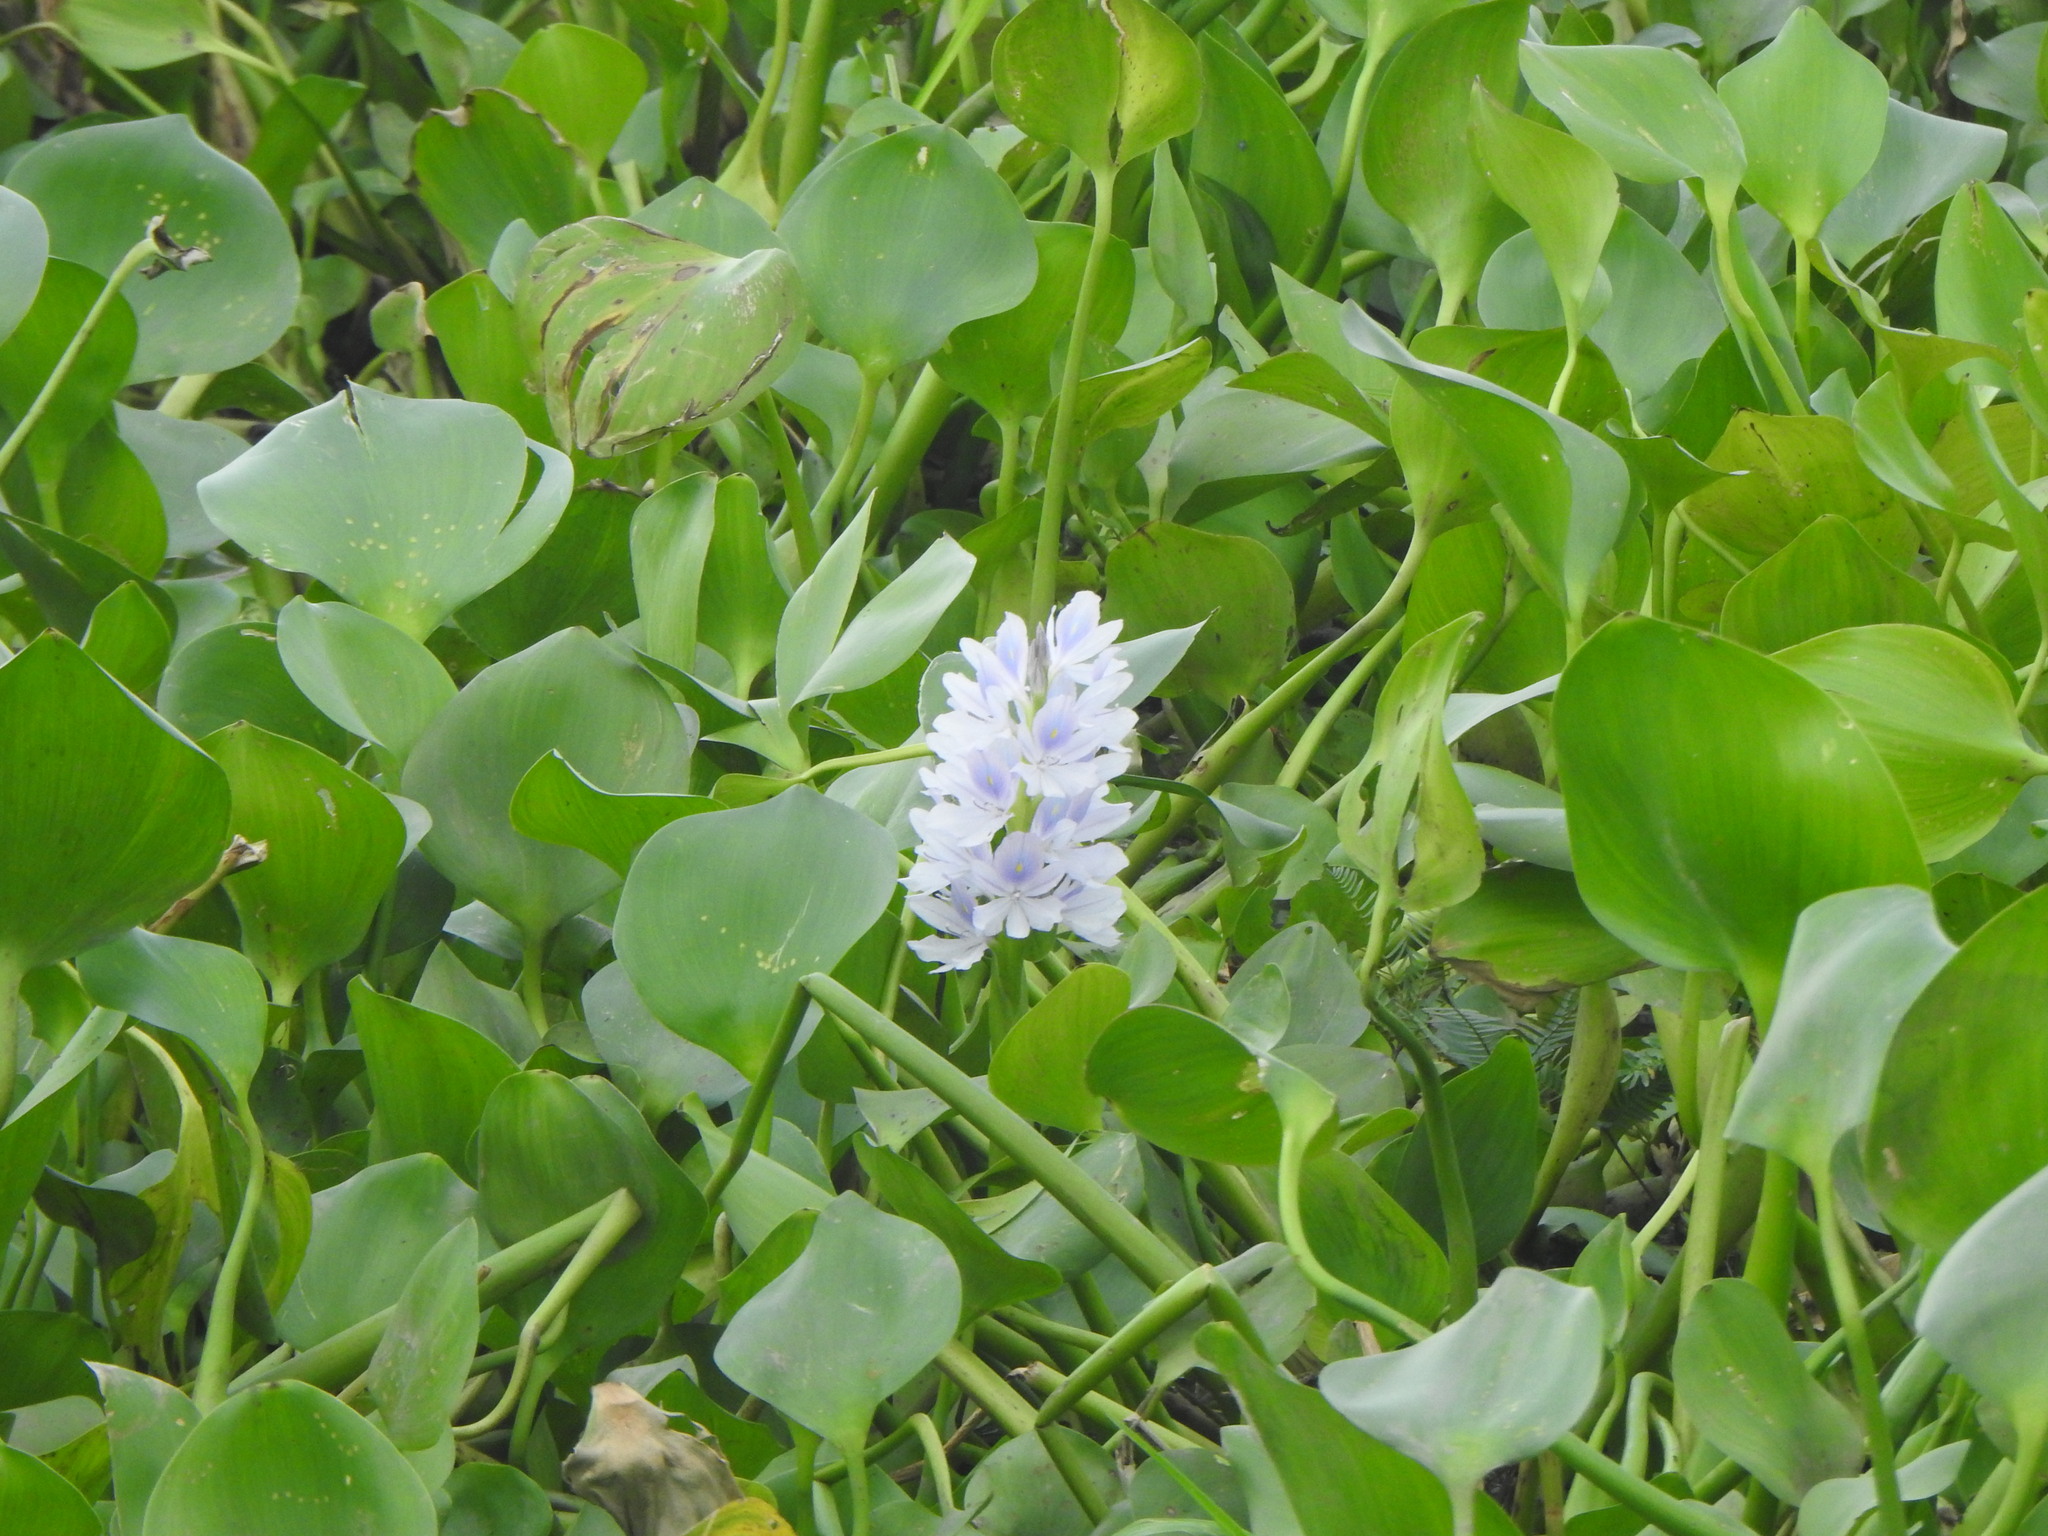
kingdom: Plantae
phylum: Tracheophyta
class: Liliopsida
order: Commelinales
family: Pontederiaceae
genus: Pontederia
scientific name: Pontederia crassipes
